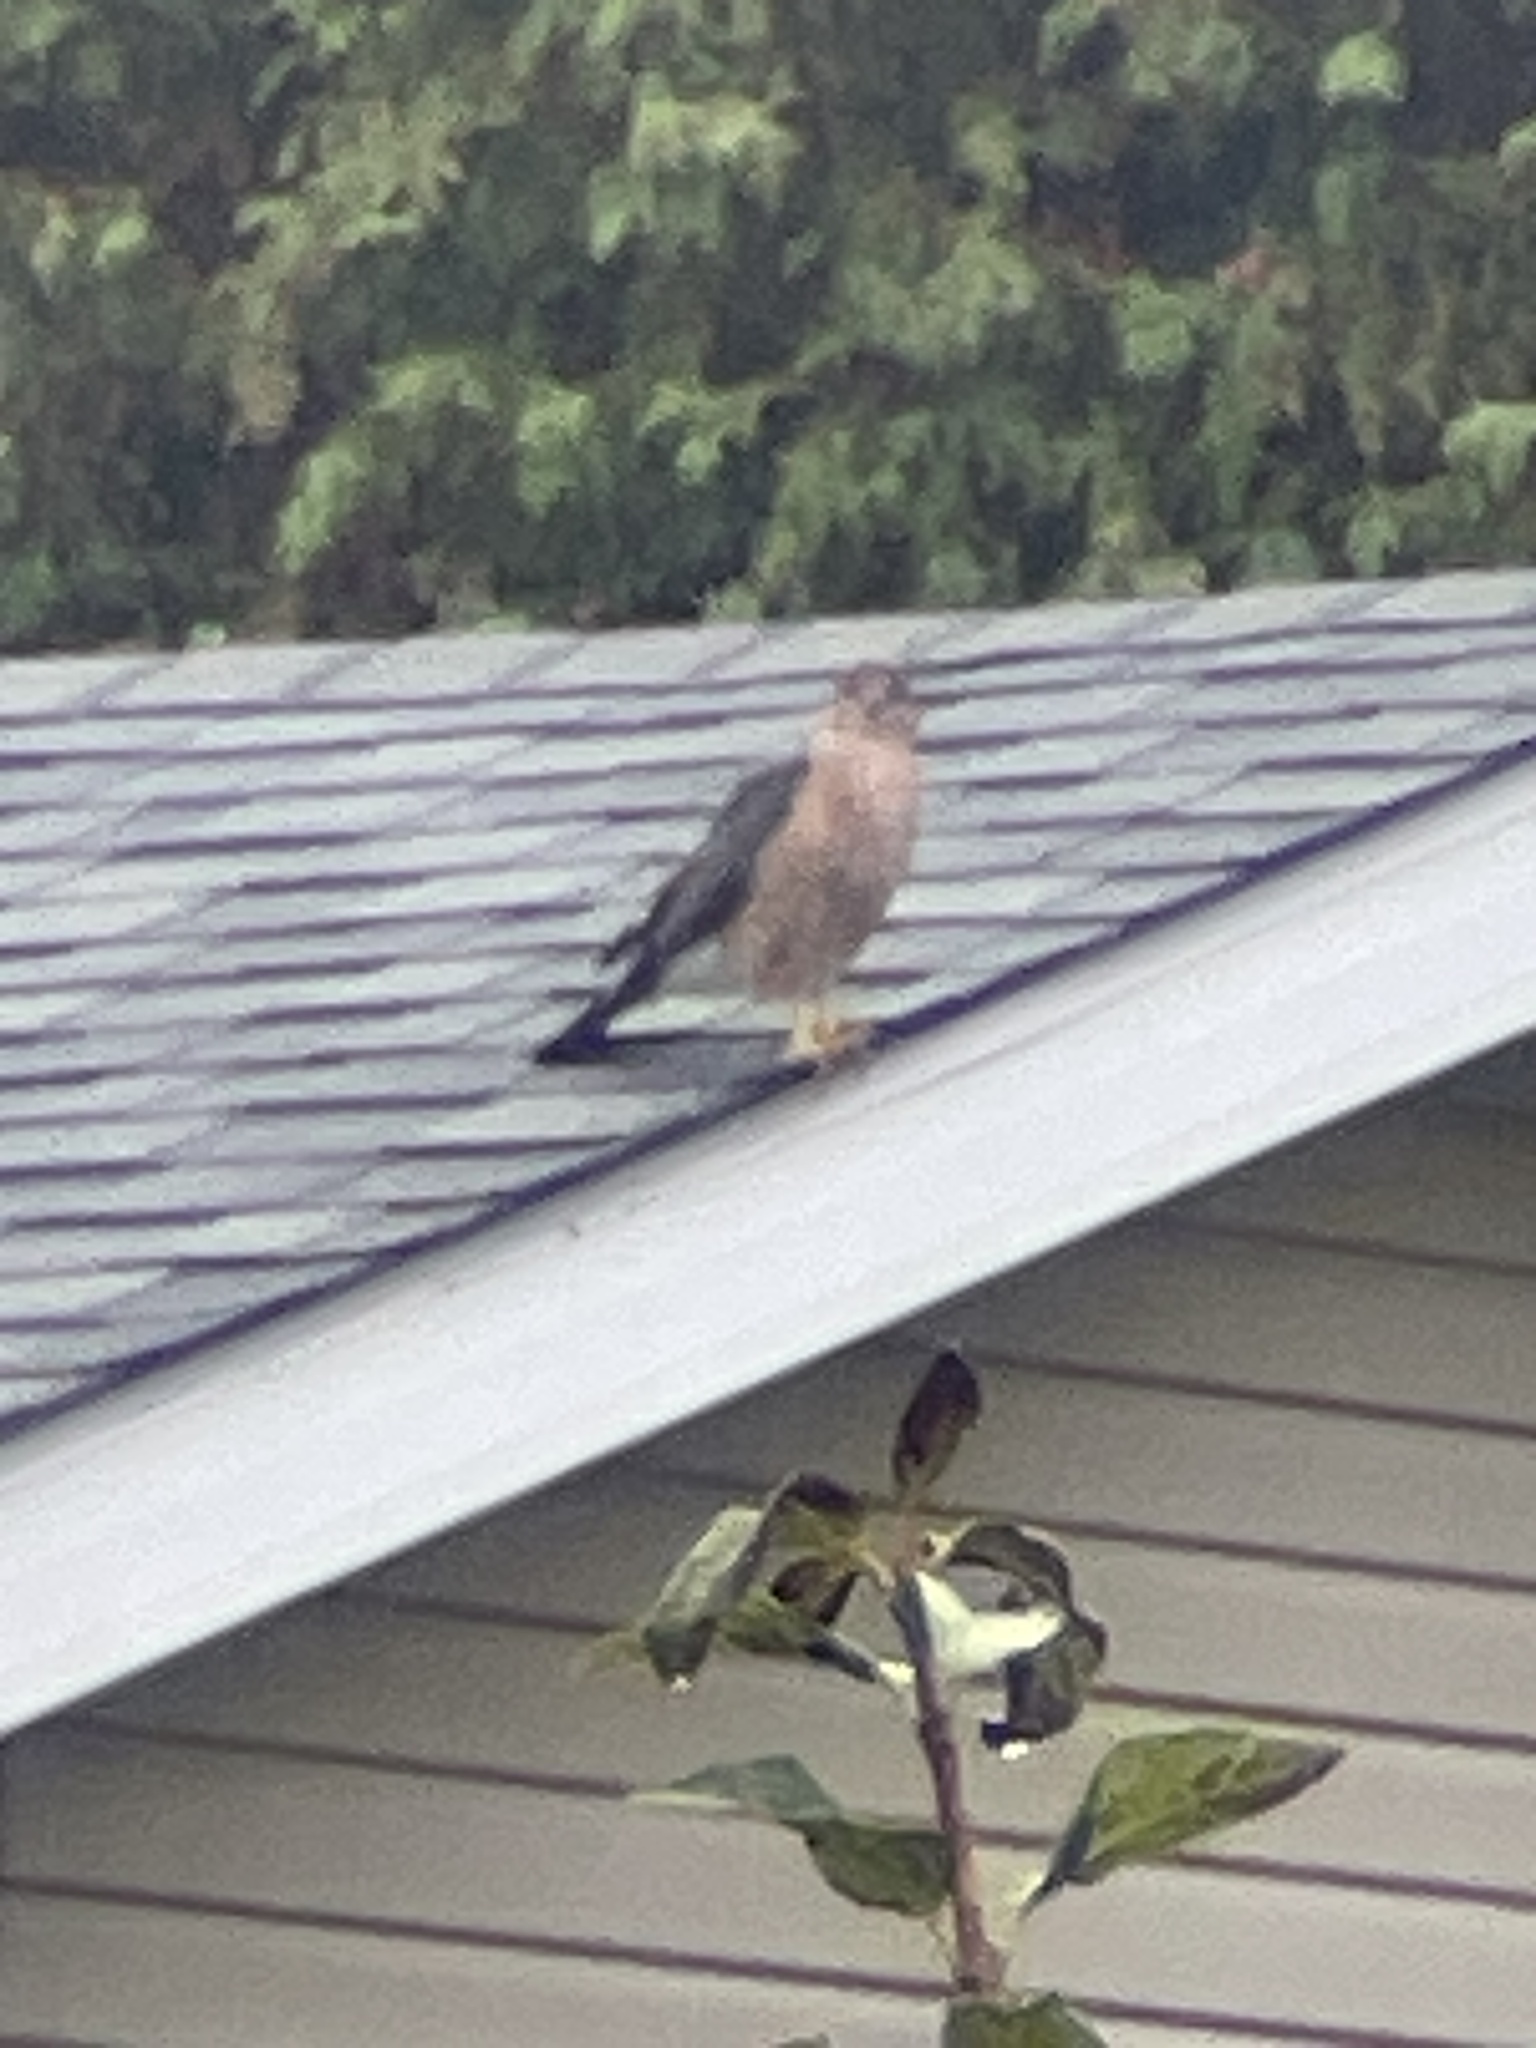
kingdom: Animalia
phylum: Chordata
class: Aves
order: Accipitriformes
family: Accipitridae
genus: Accipiter
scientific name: Accipiter cooperii
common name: Cooper's hawk
